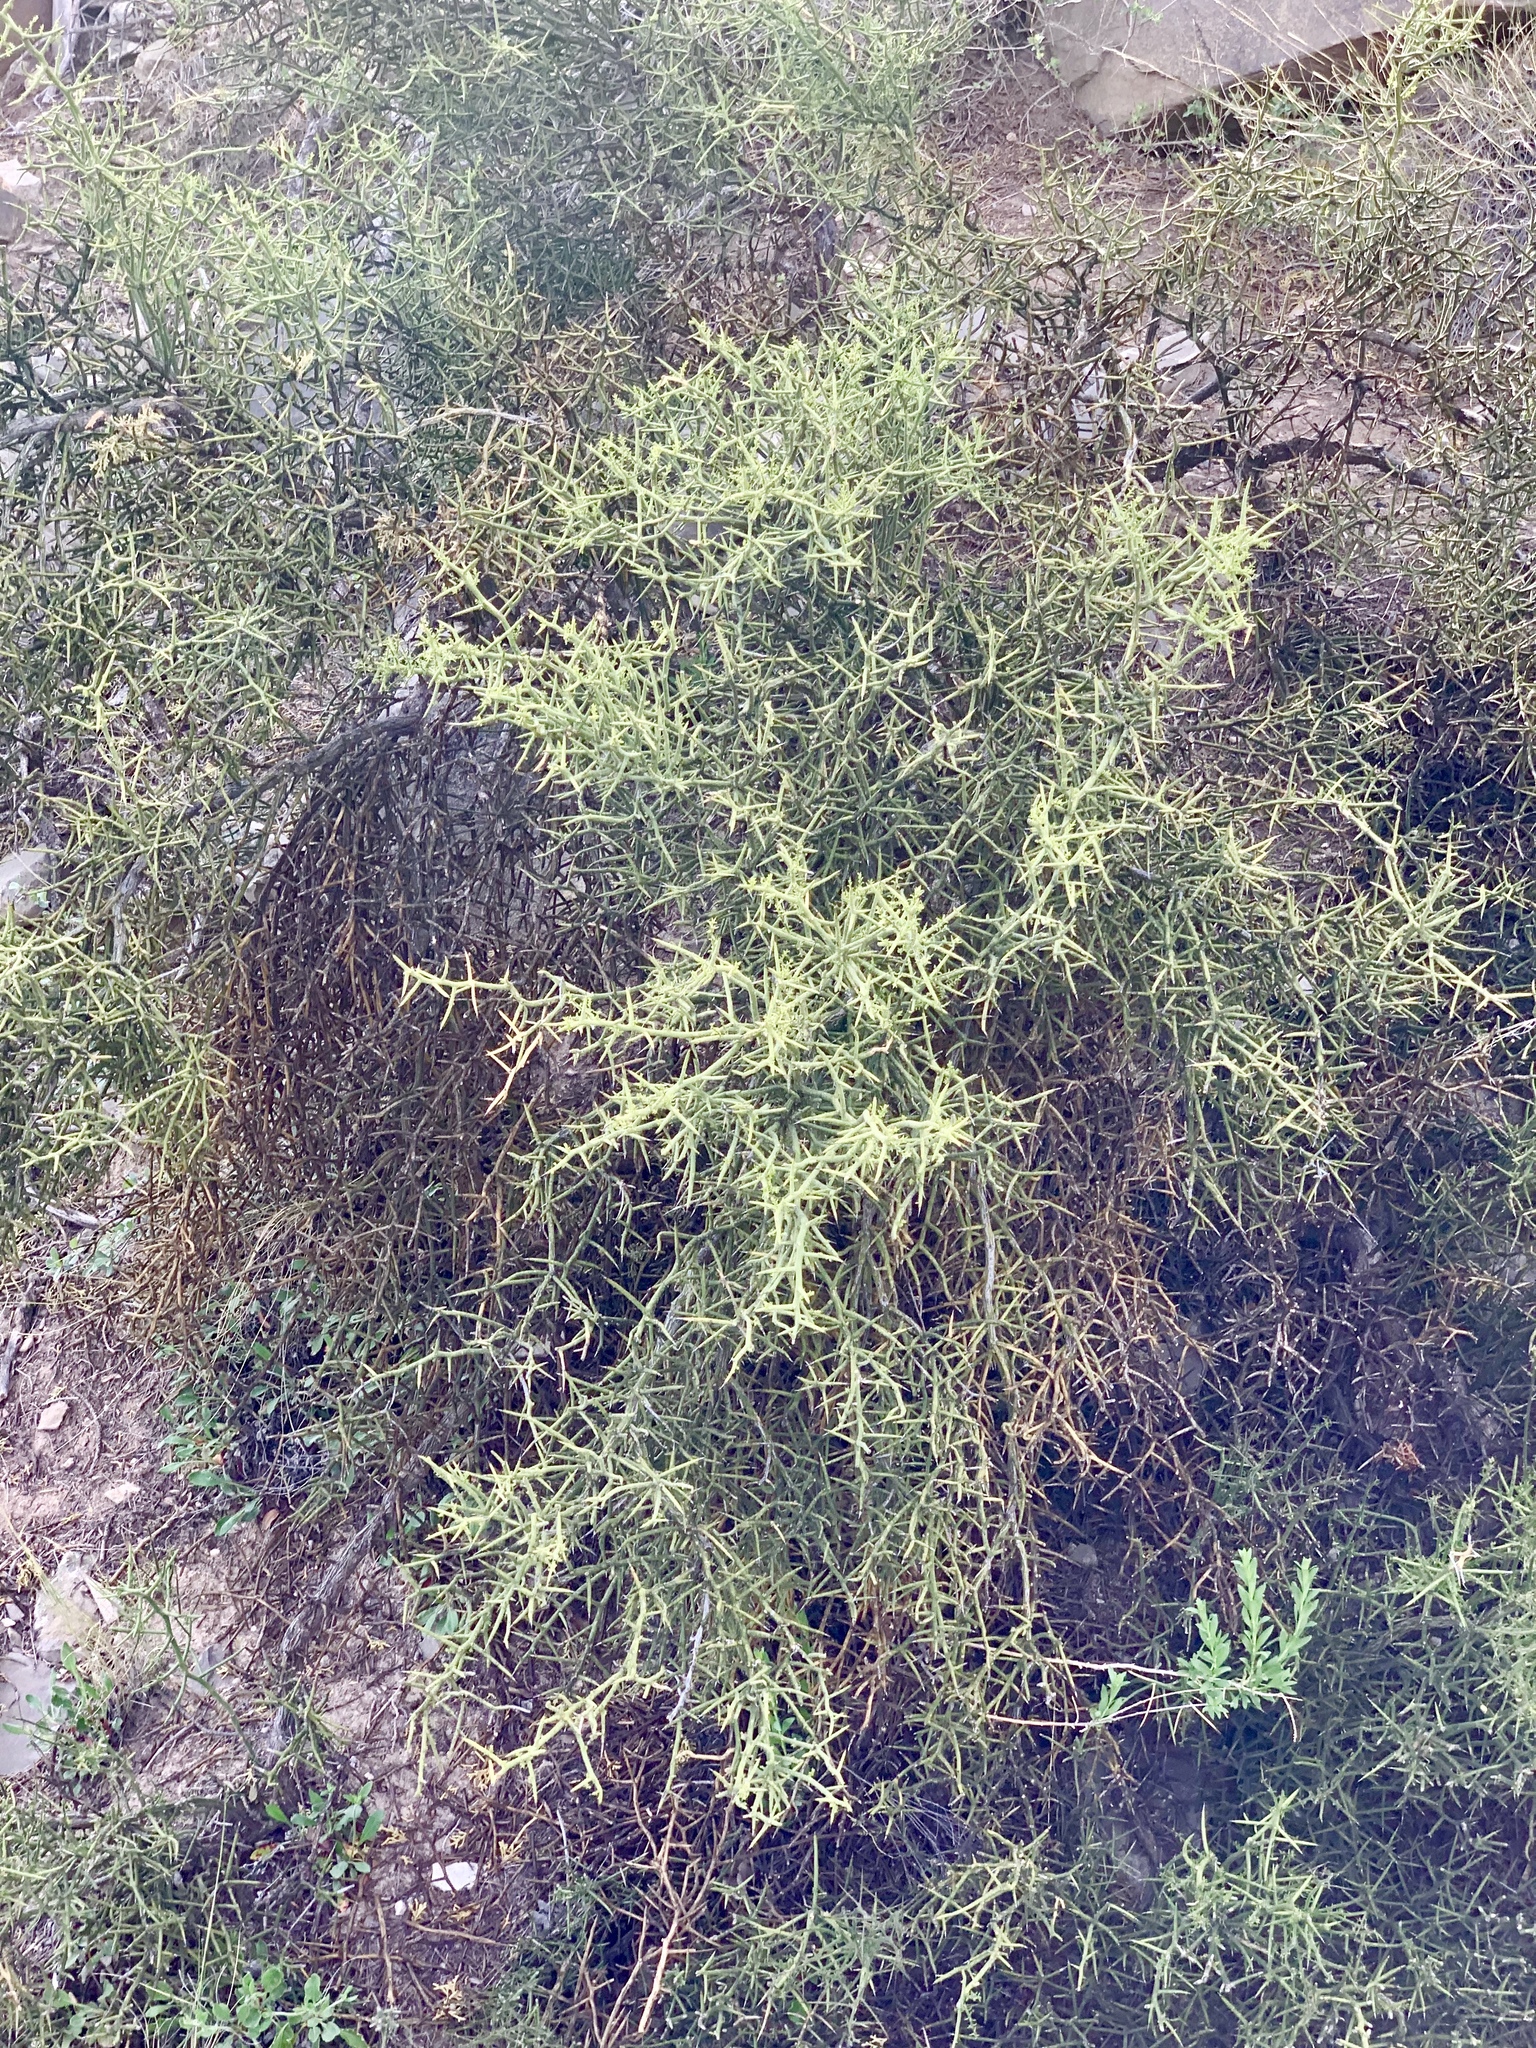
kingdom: Plantae
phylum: Tracheophyta
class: Magnoliopsida
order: Brassicales
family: Koeberliniaceae
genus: Koeberlinia
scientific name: Koeberlinia spinosa
